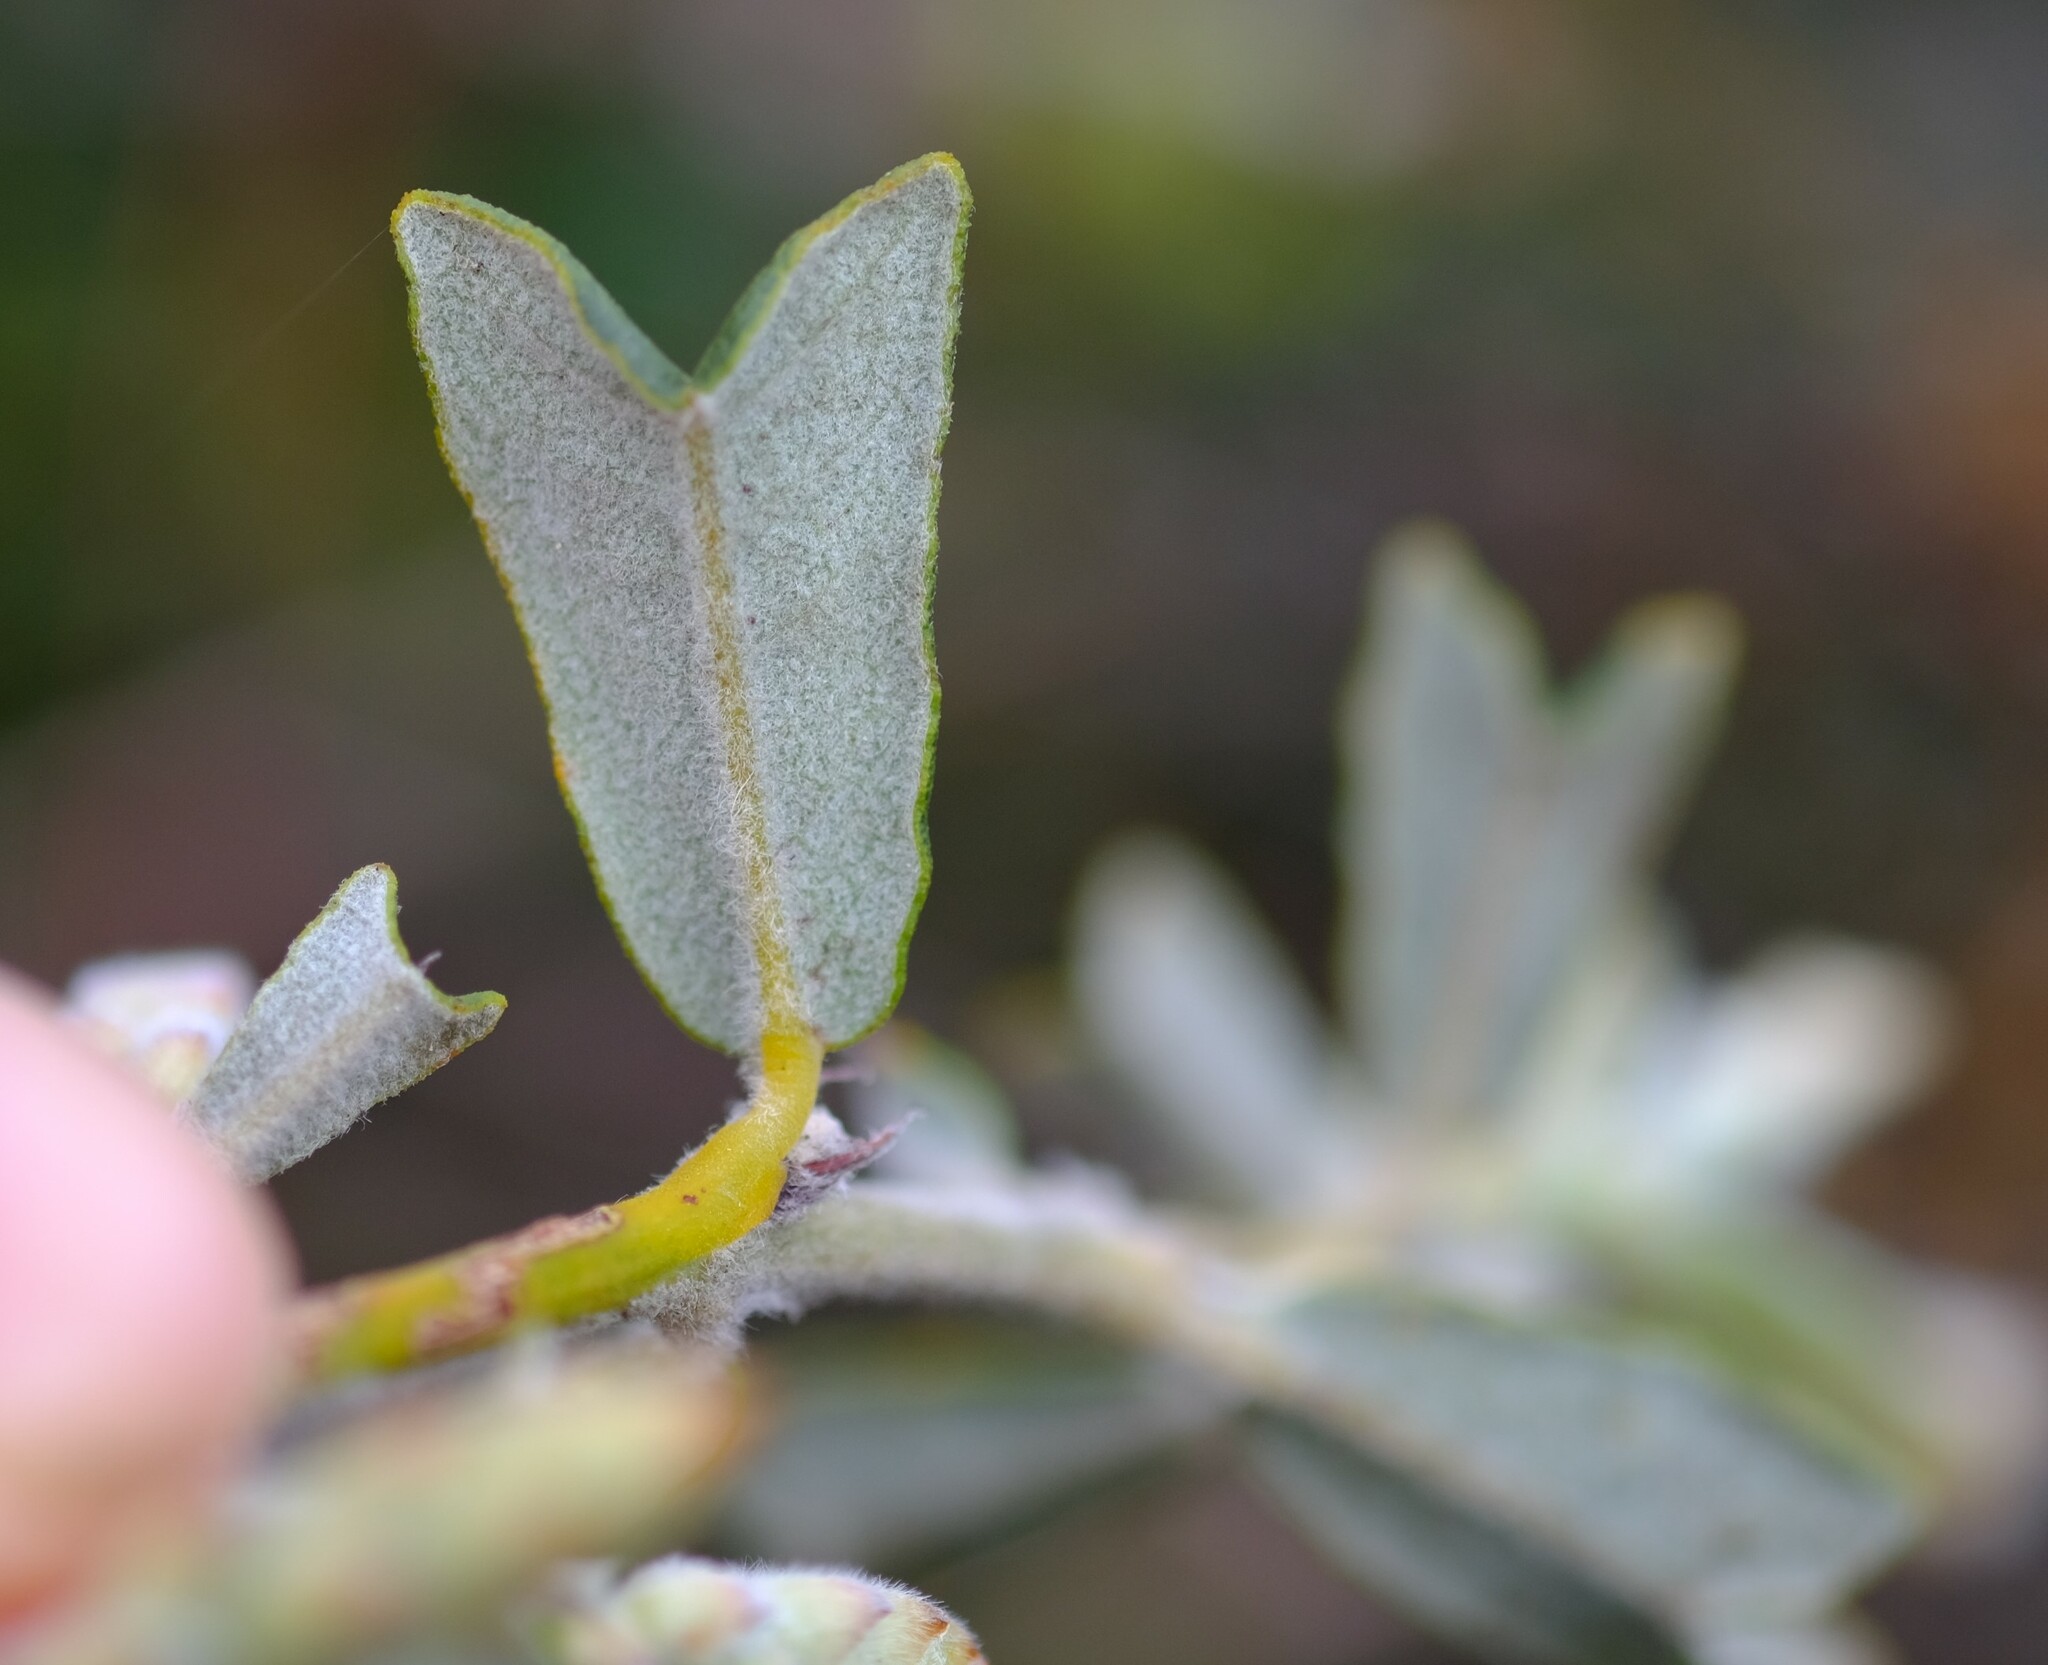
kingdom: Plantae
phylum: Tracheophyta
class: Magnoliopsida
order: Fabales
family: Fabaceae
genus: Gastrolobium
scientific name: Gastrolobium polystachyum
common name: Hill river poison
